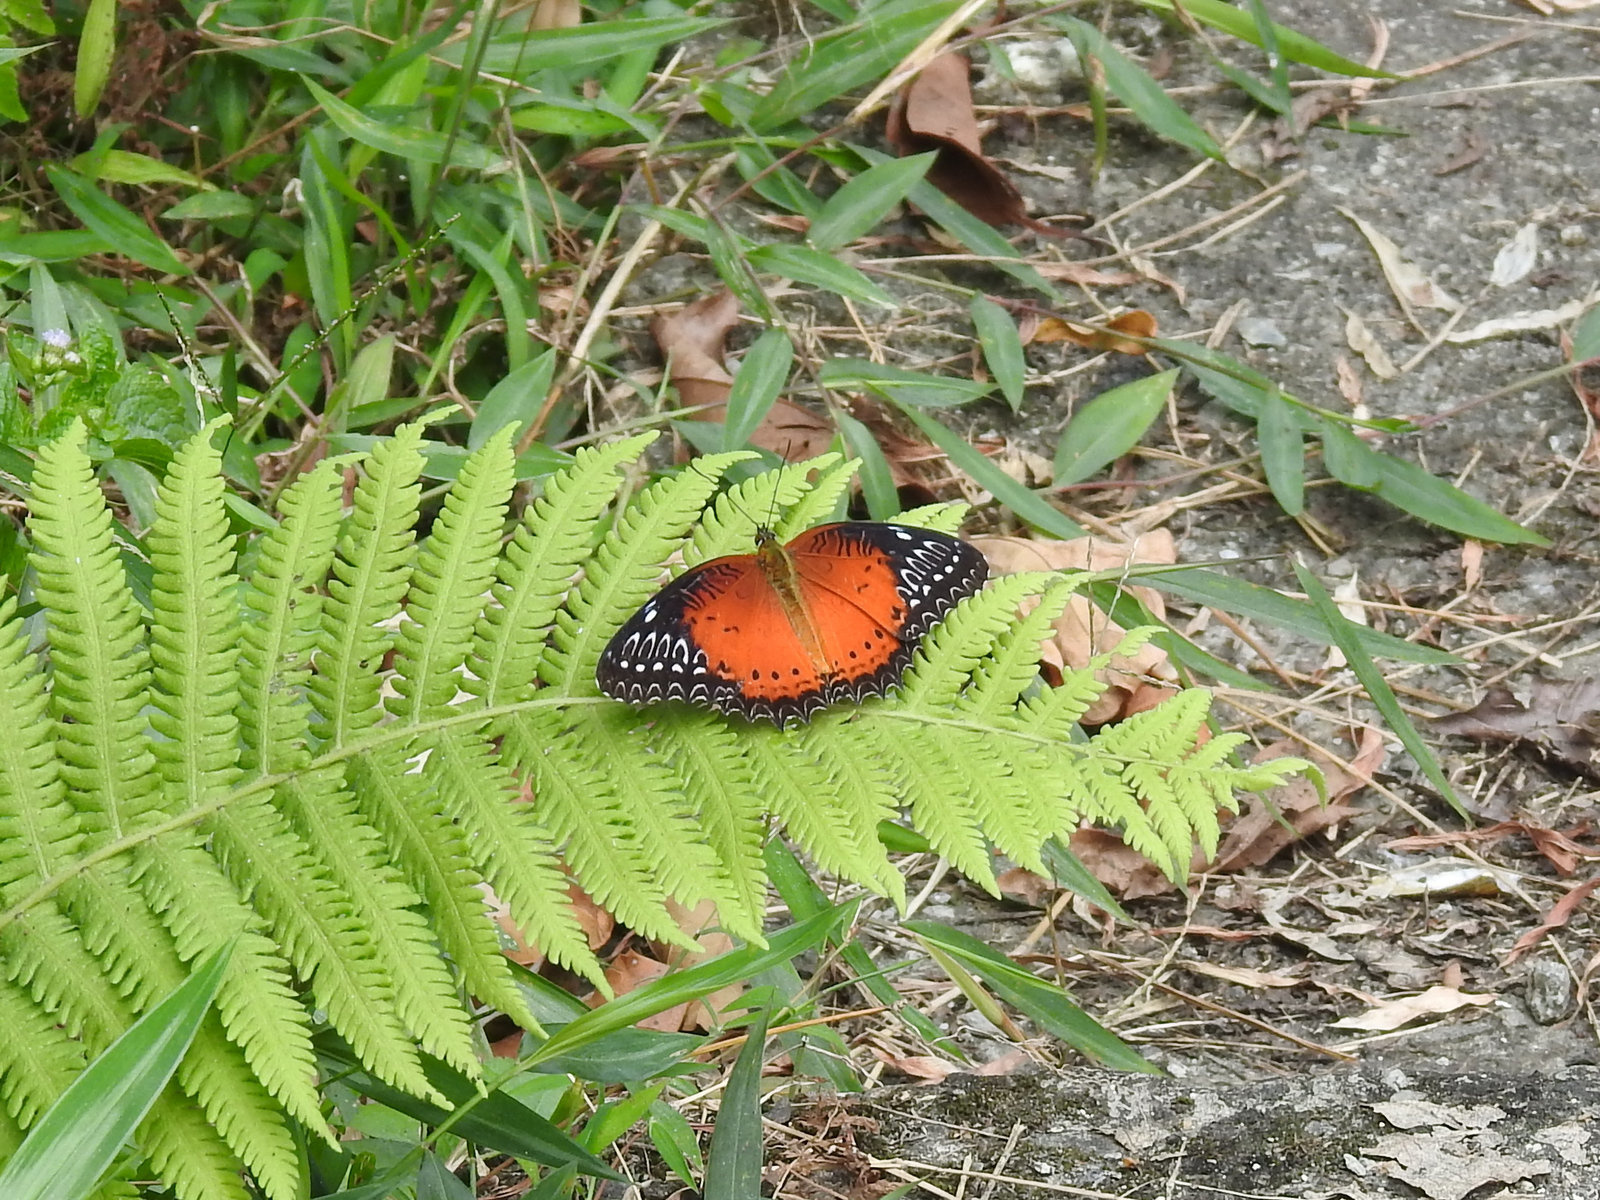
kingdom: Animalia
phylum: Arthropoda
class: Insecta
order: Lepidoptera
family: Nymphalidae
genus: Cethosia
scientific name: Cethosia biblis
